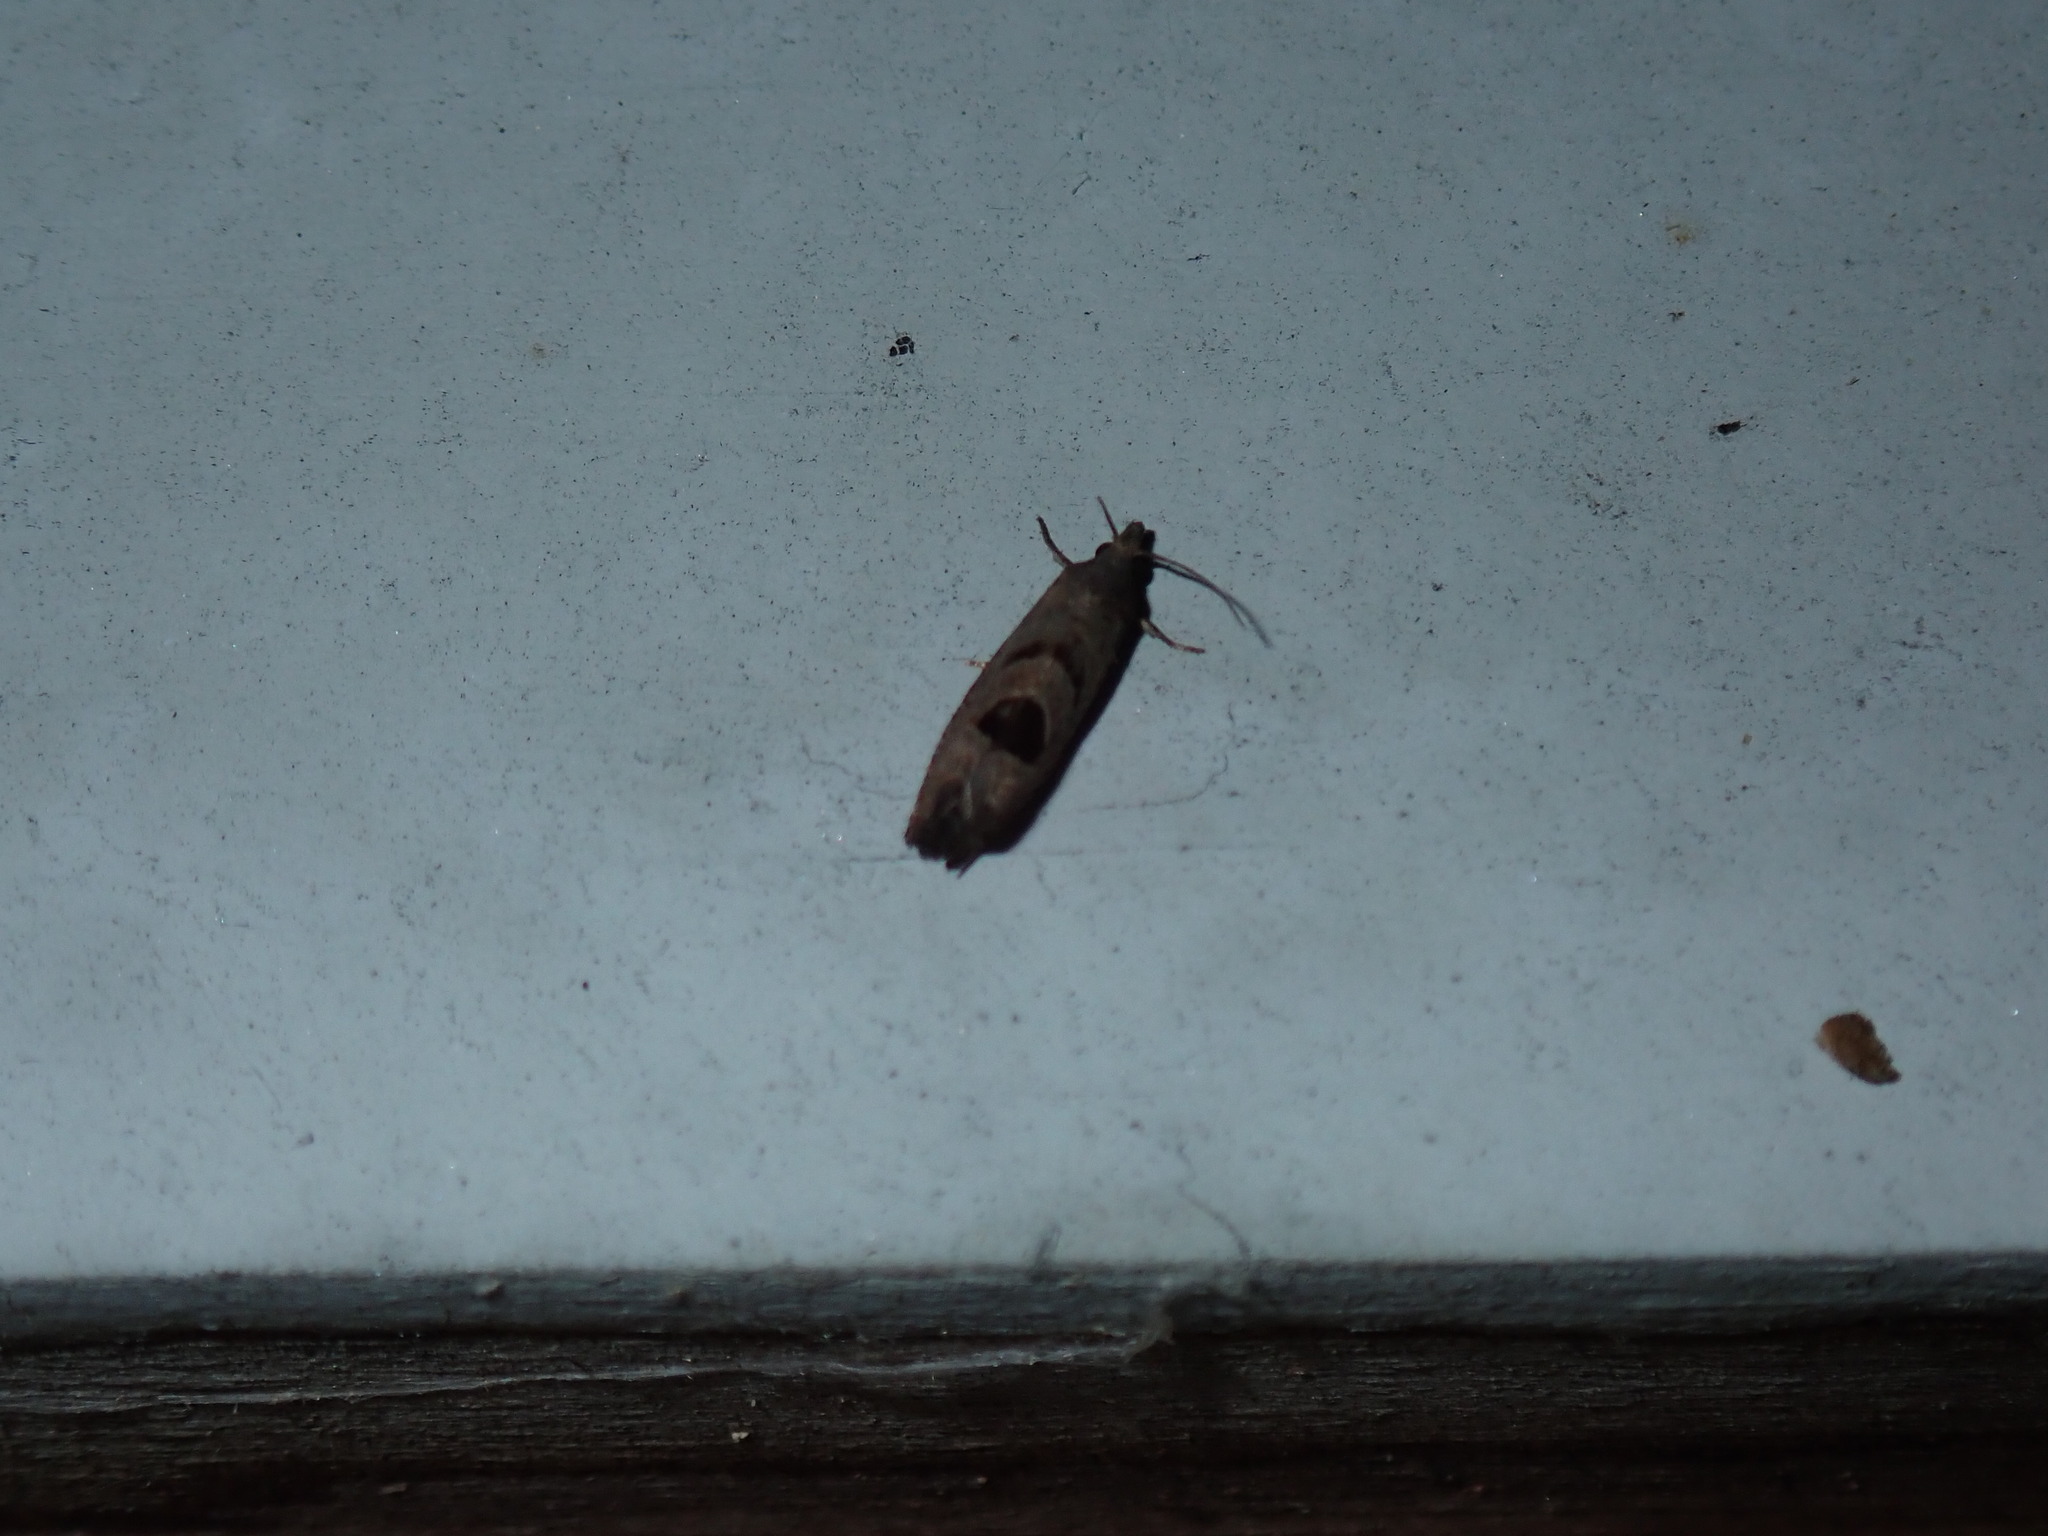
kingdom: Animalia
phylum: Arthropoda
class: Insecta
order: Lepidoptera
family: Tortricidae
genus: Eucosma
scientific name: Eucosma tomonana
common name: Aster-head eucosma moth
